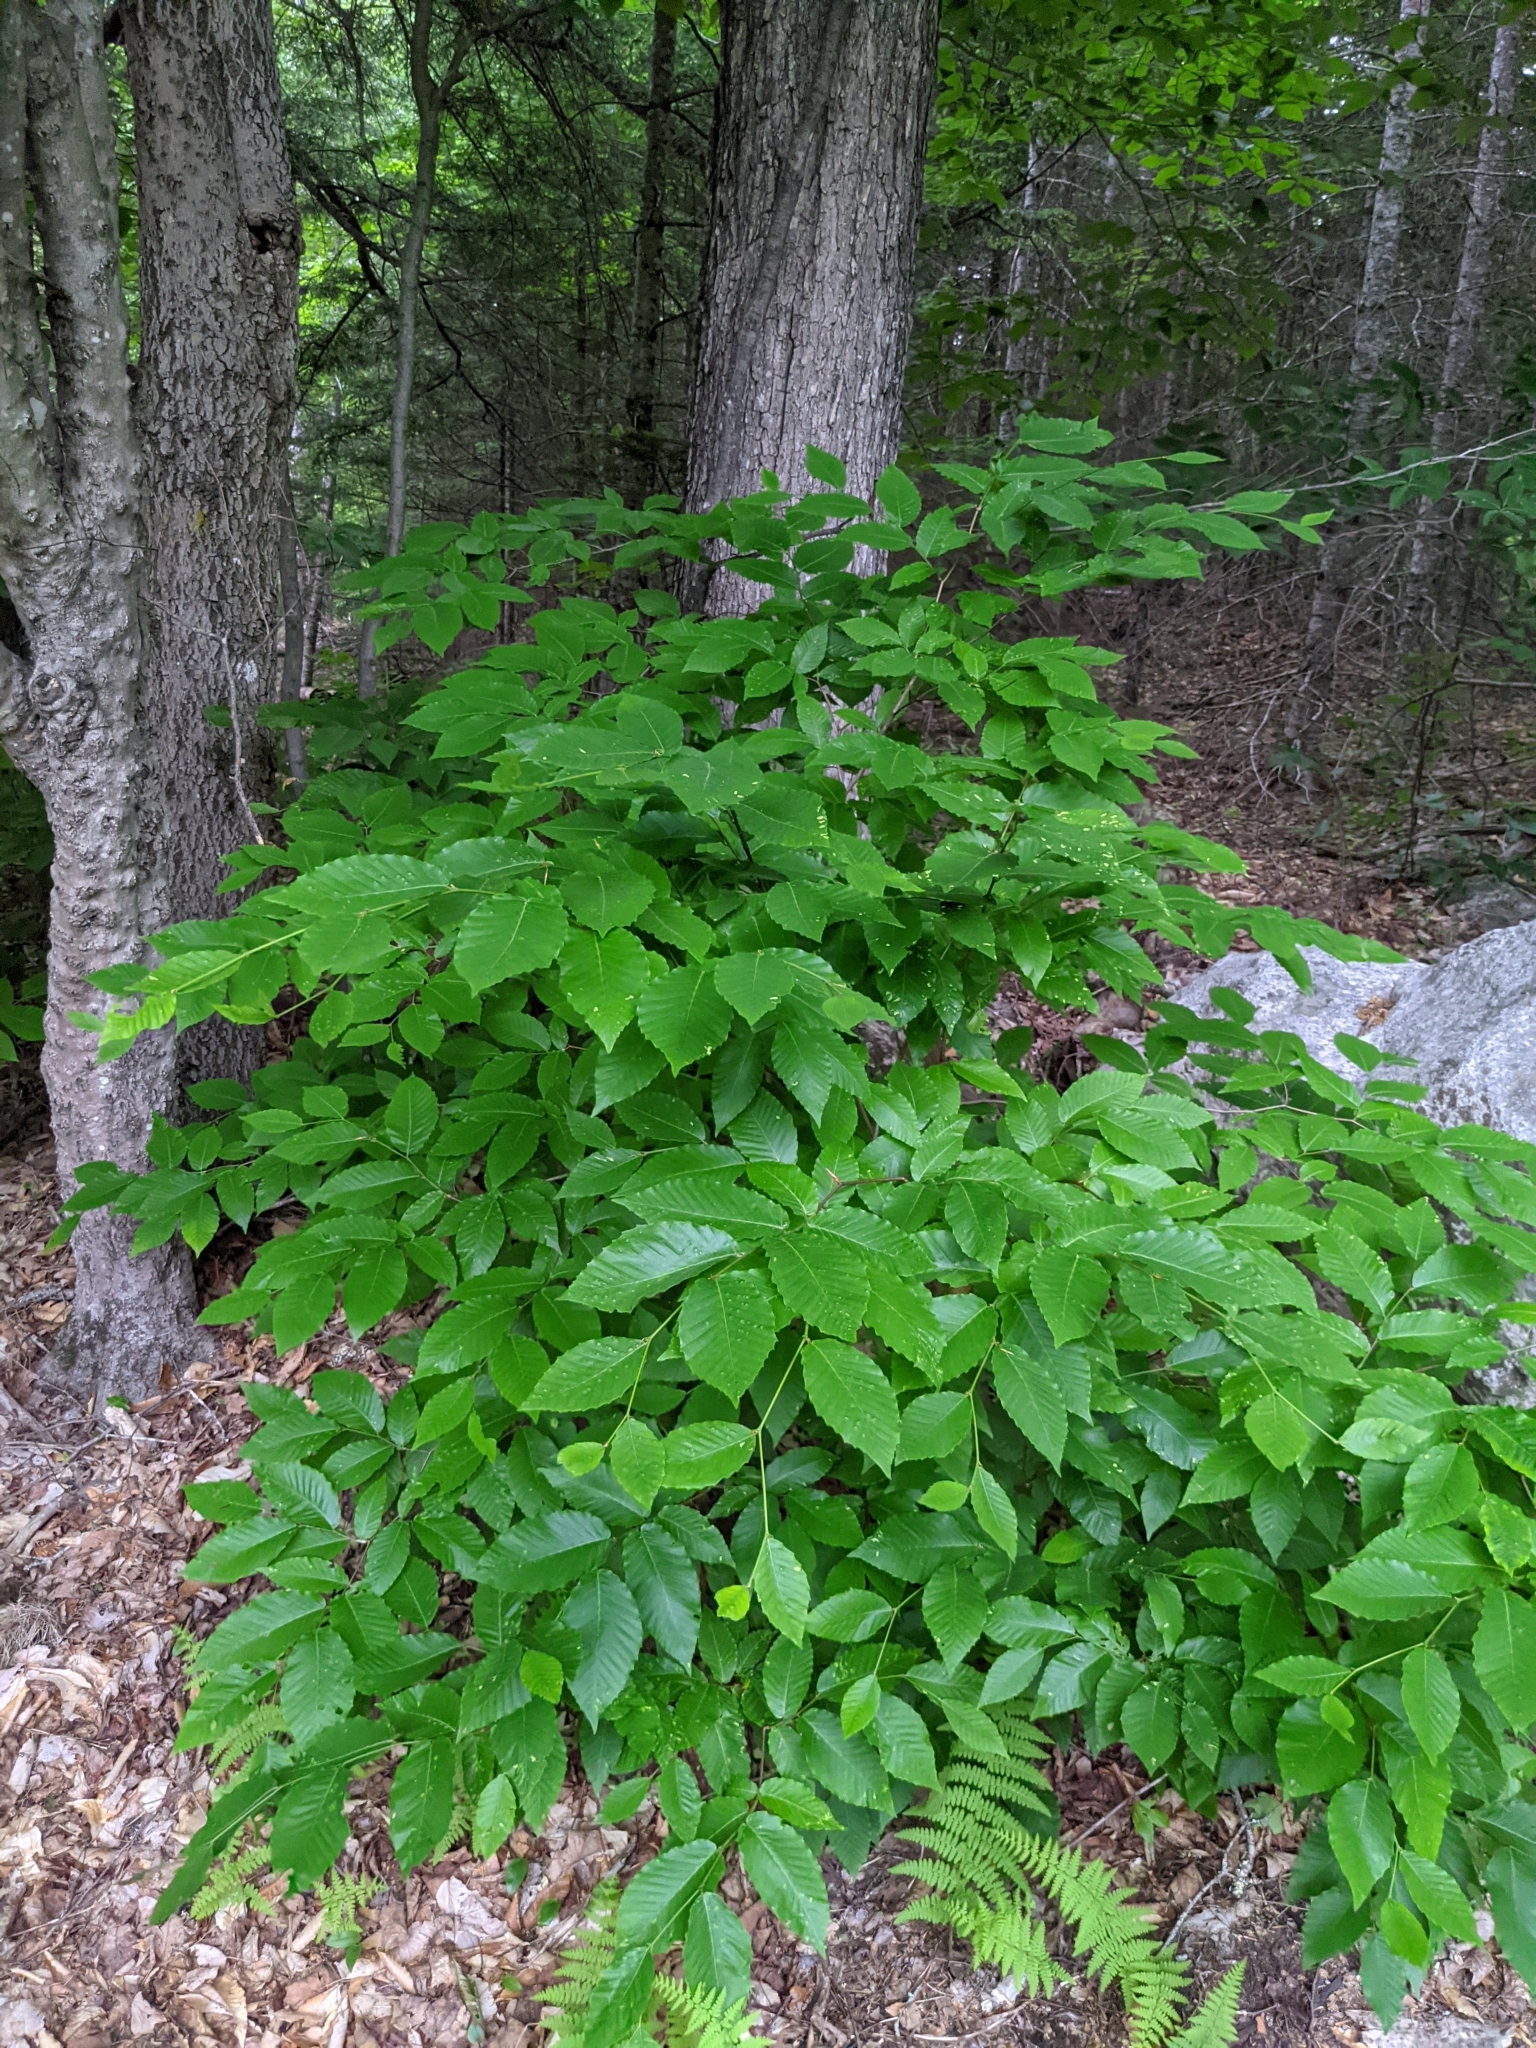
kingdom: Plantae
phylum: Tracheophyta
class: Magnoliopsida
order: Fagales
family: Fagaceae
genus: Fagus
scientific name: Fagus grandifolia
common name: American beech
